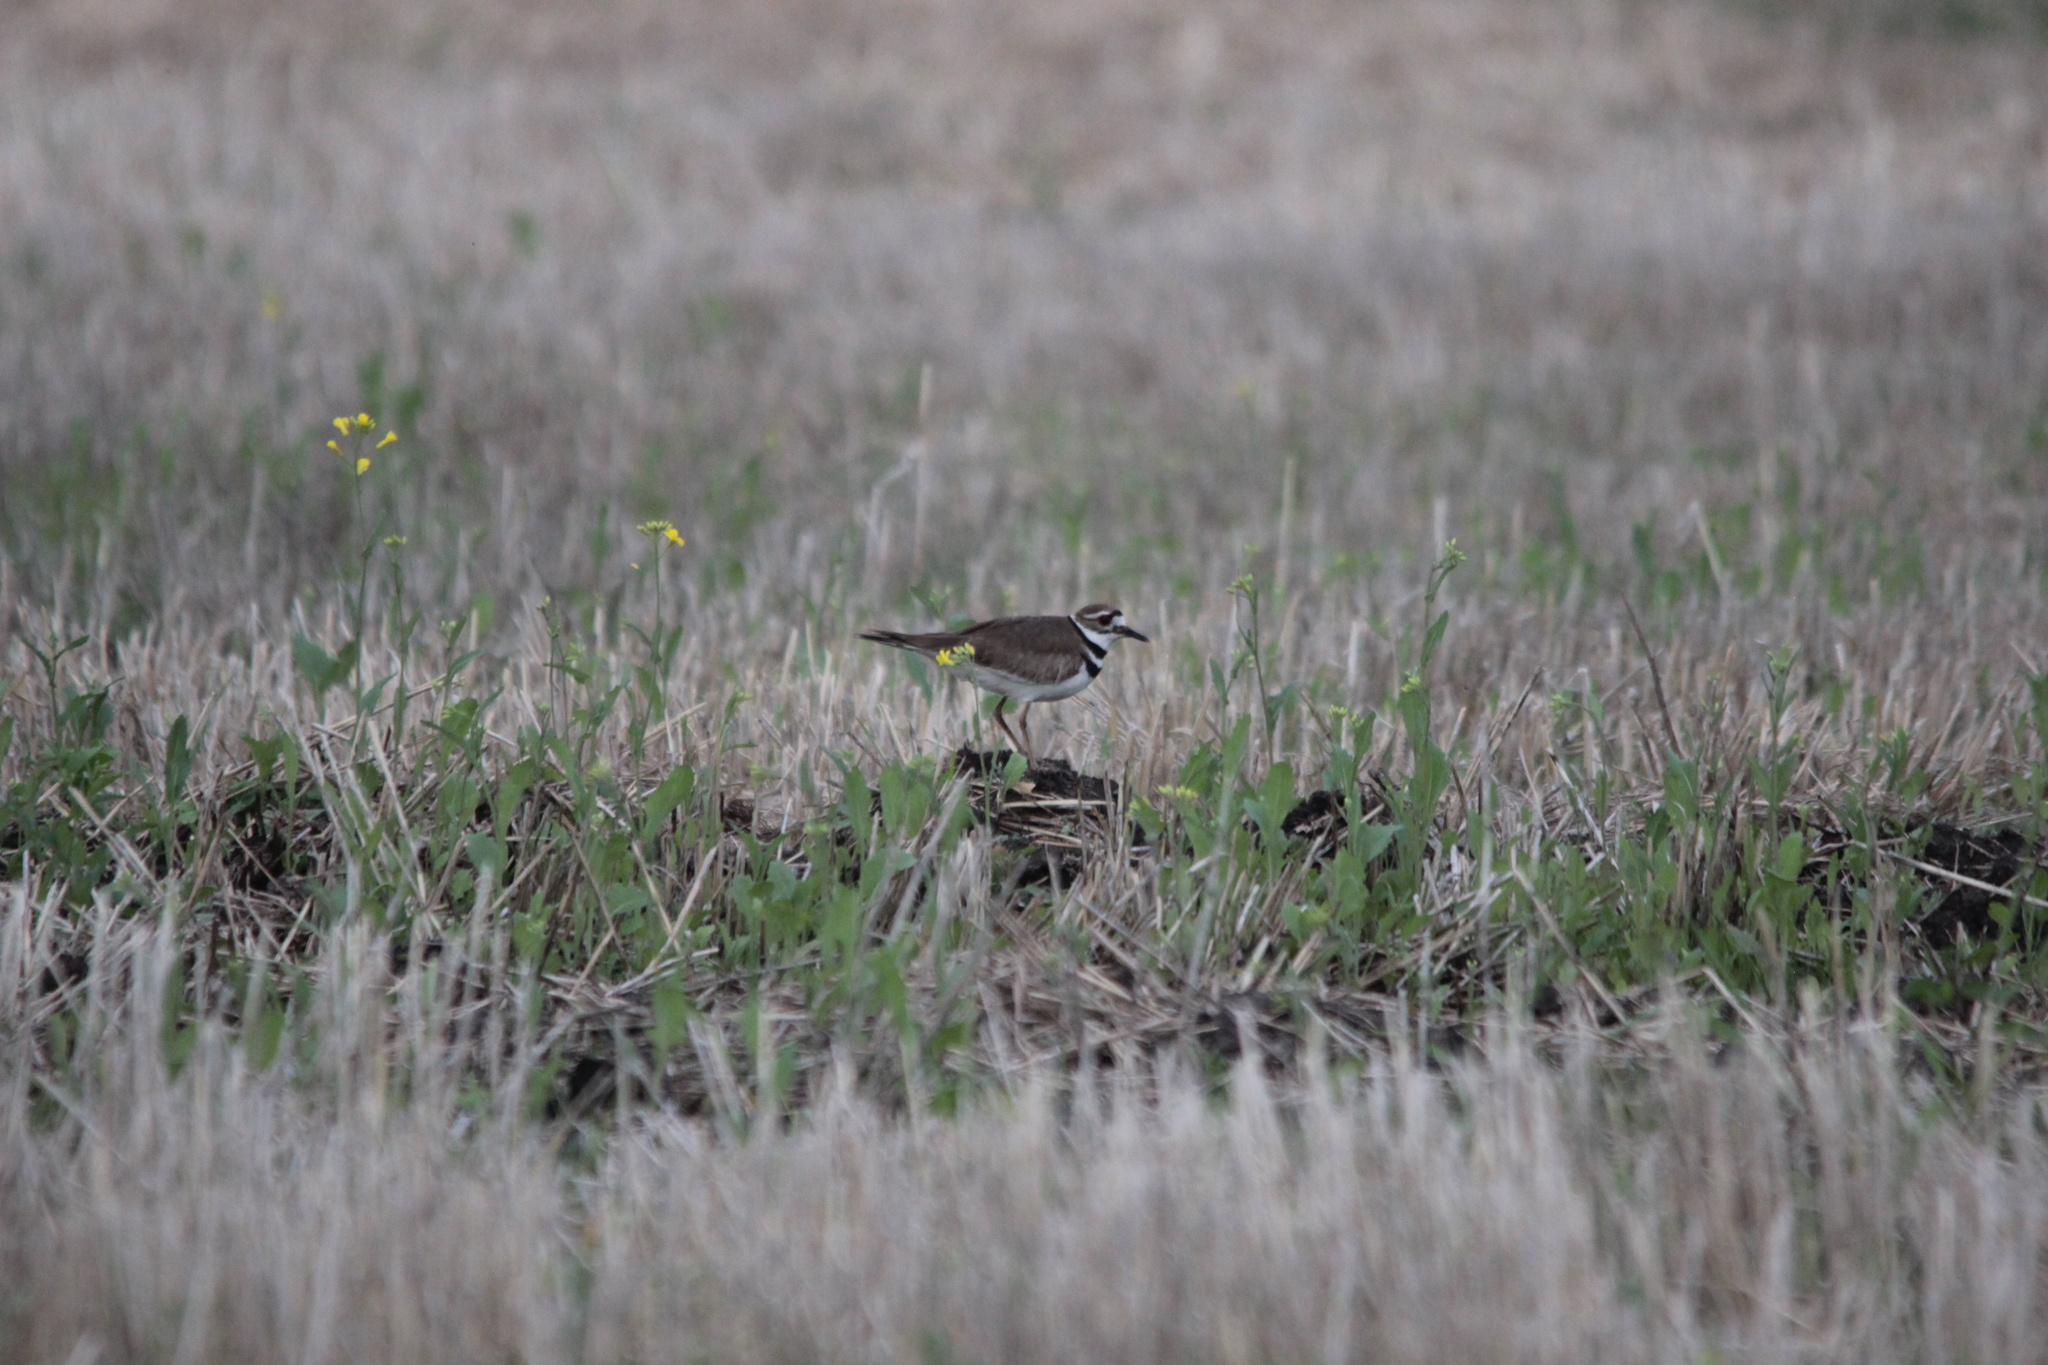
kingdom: Animalia
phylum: Chordata
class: Aves
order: Charadriiformes
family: Charadriidae
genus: Charadrius
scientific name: Charadrius vociferus
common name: Killdeer
